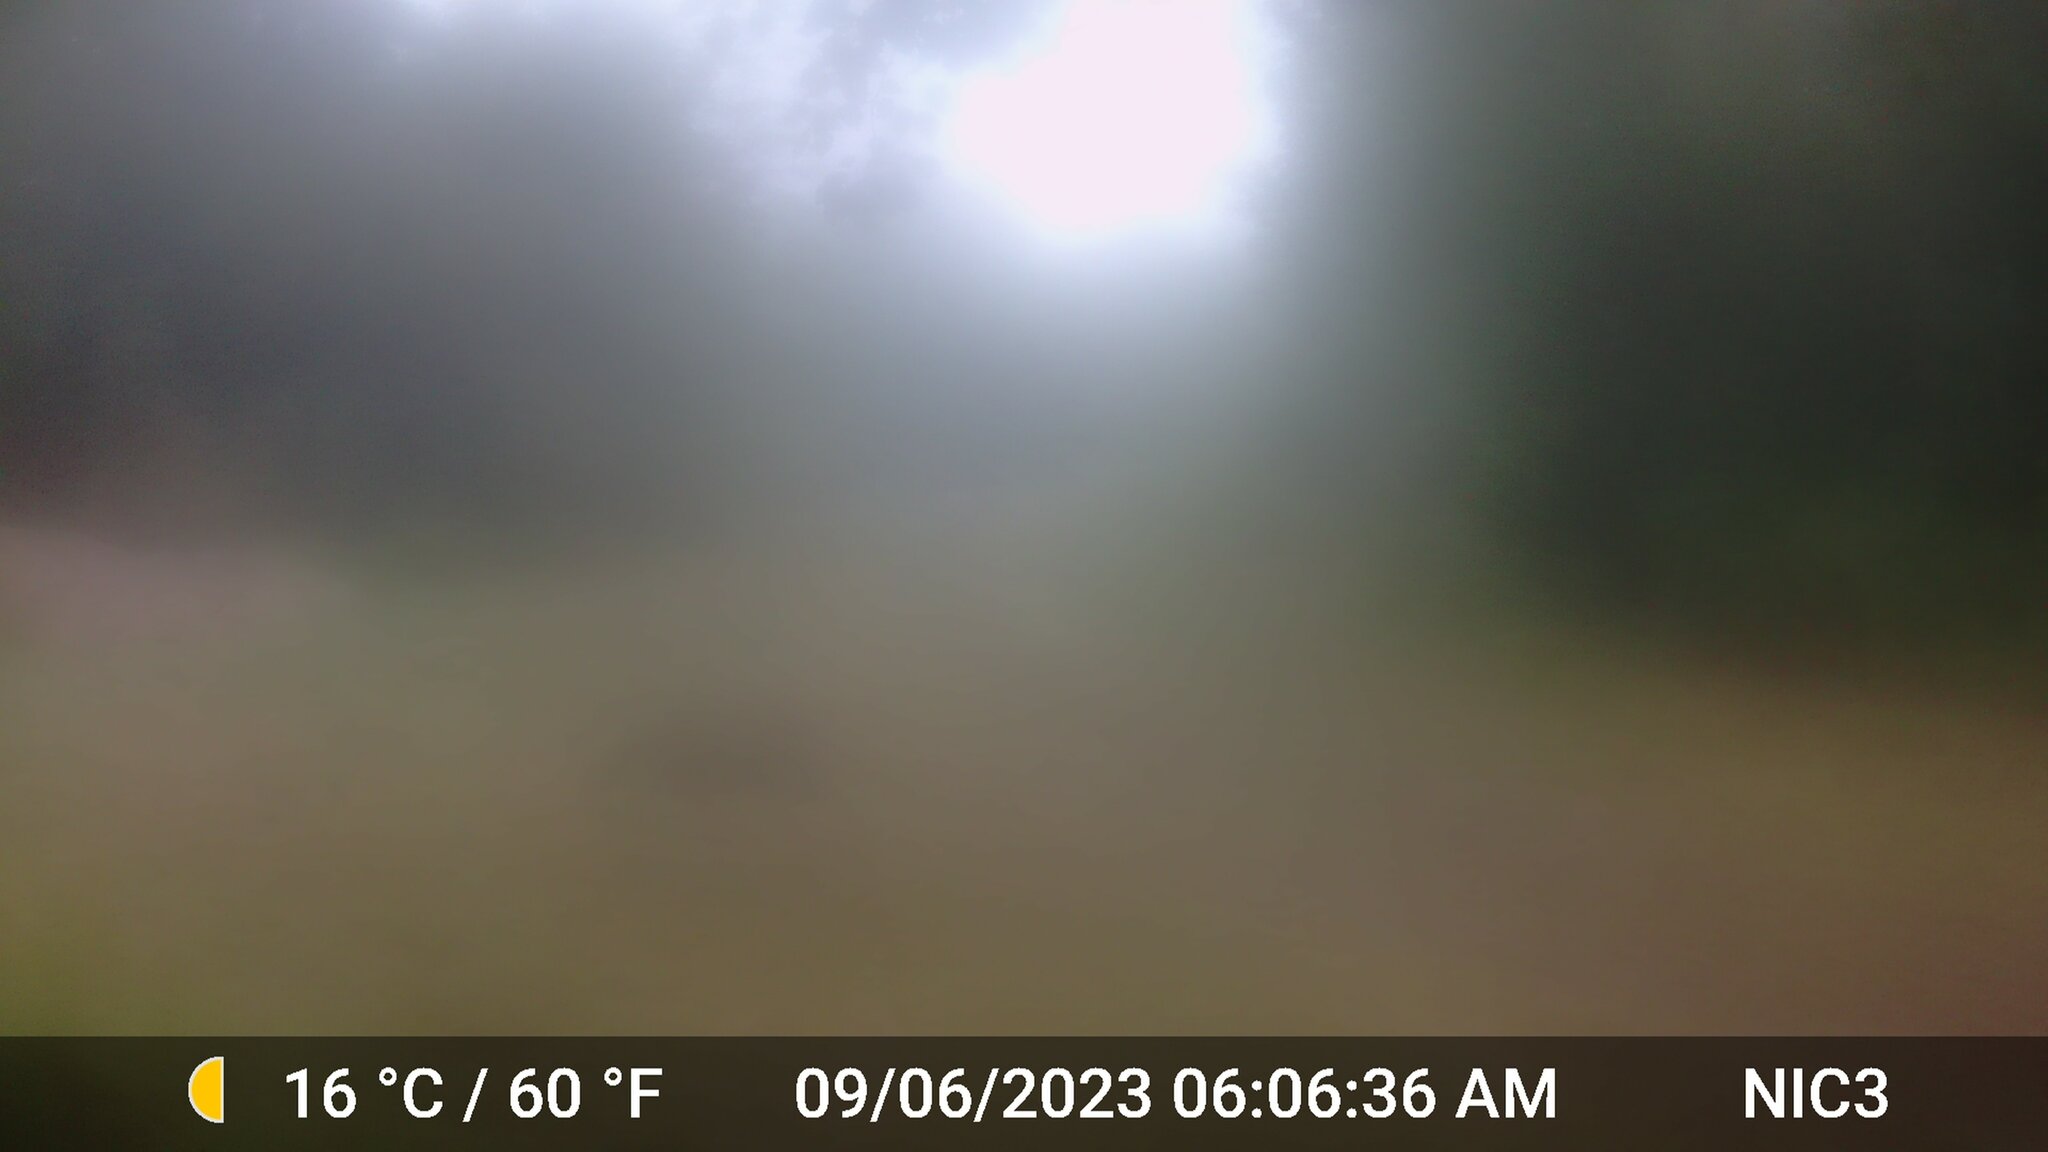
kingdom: Animalia
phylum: Chordata
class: Mammalia
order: Artiodactyla
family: Cervidae
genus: Odocoileus
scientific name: Odocoileus virginianus
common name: White-tailed deer
